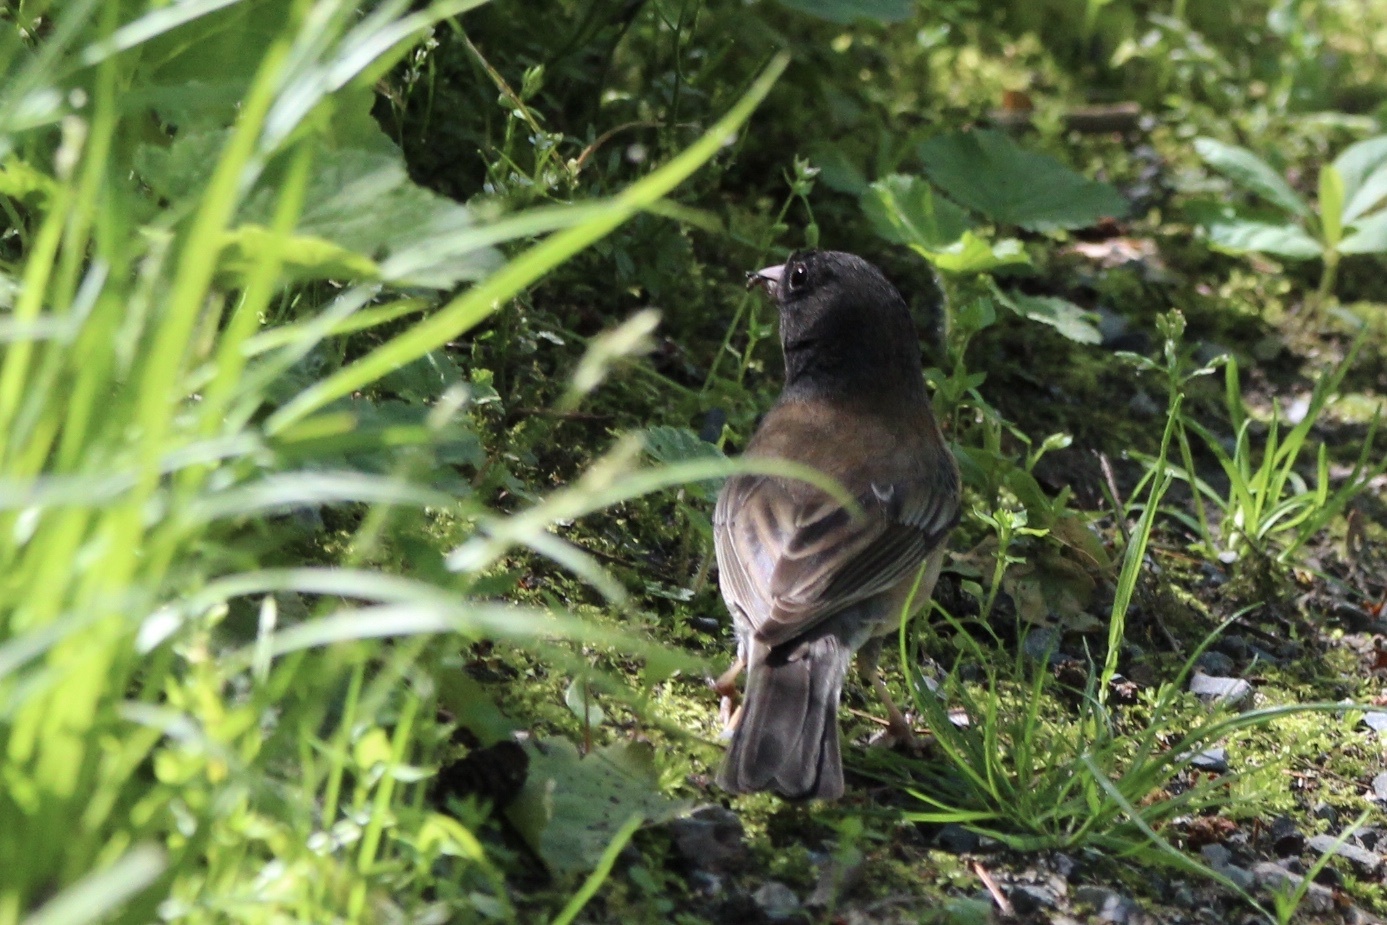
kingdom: Animalia
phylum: Chordata
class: Aves
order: Passeriformes
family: Passerellidae
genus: Junco
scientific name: Junco hyemalis
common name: Dark-eyed junco
